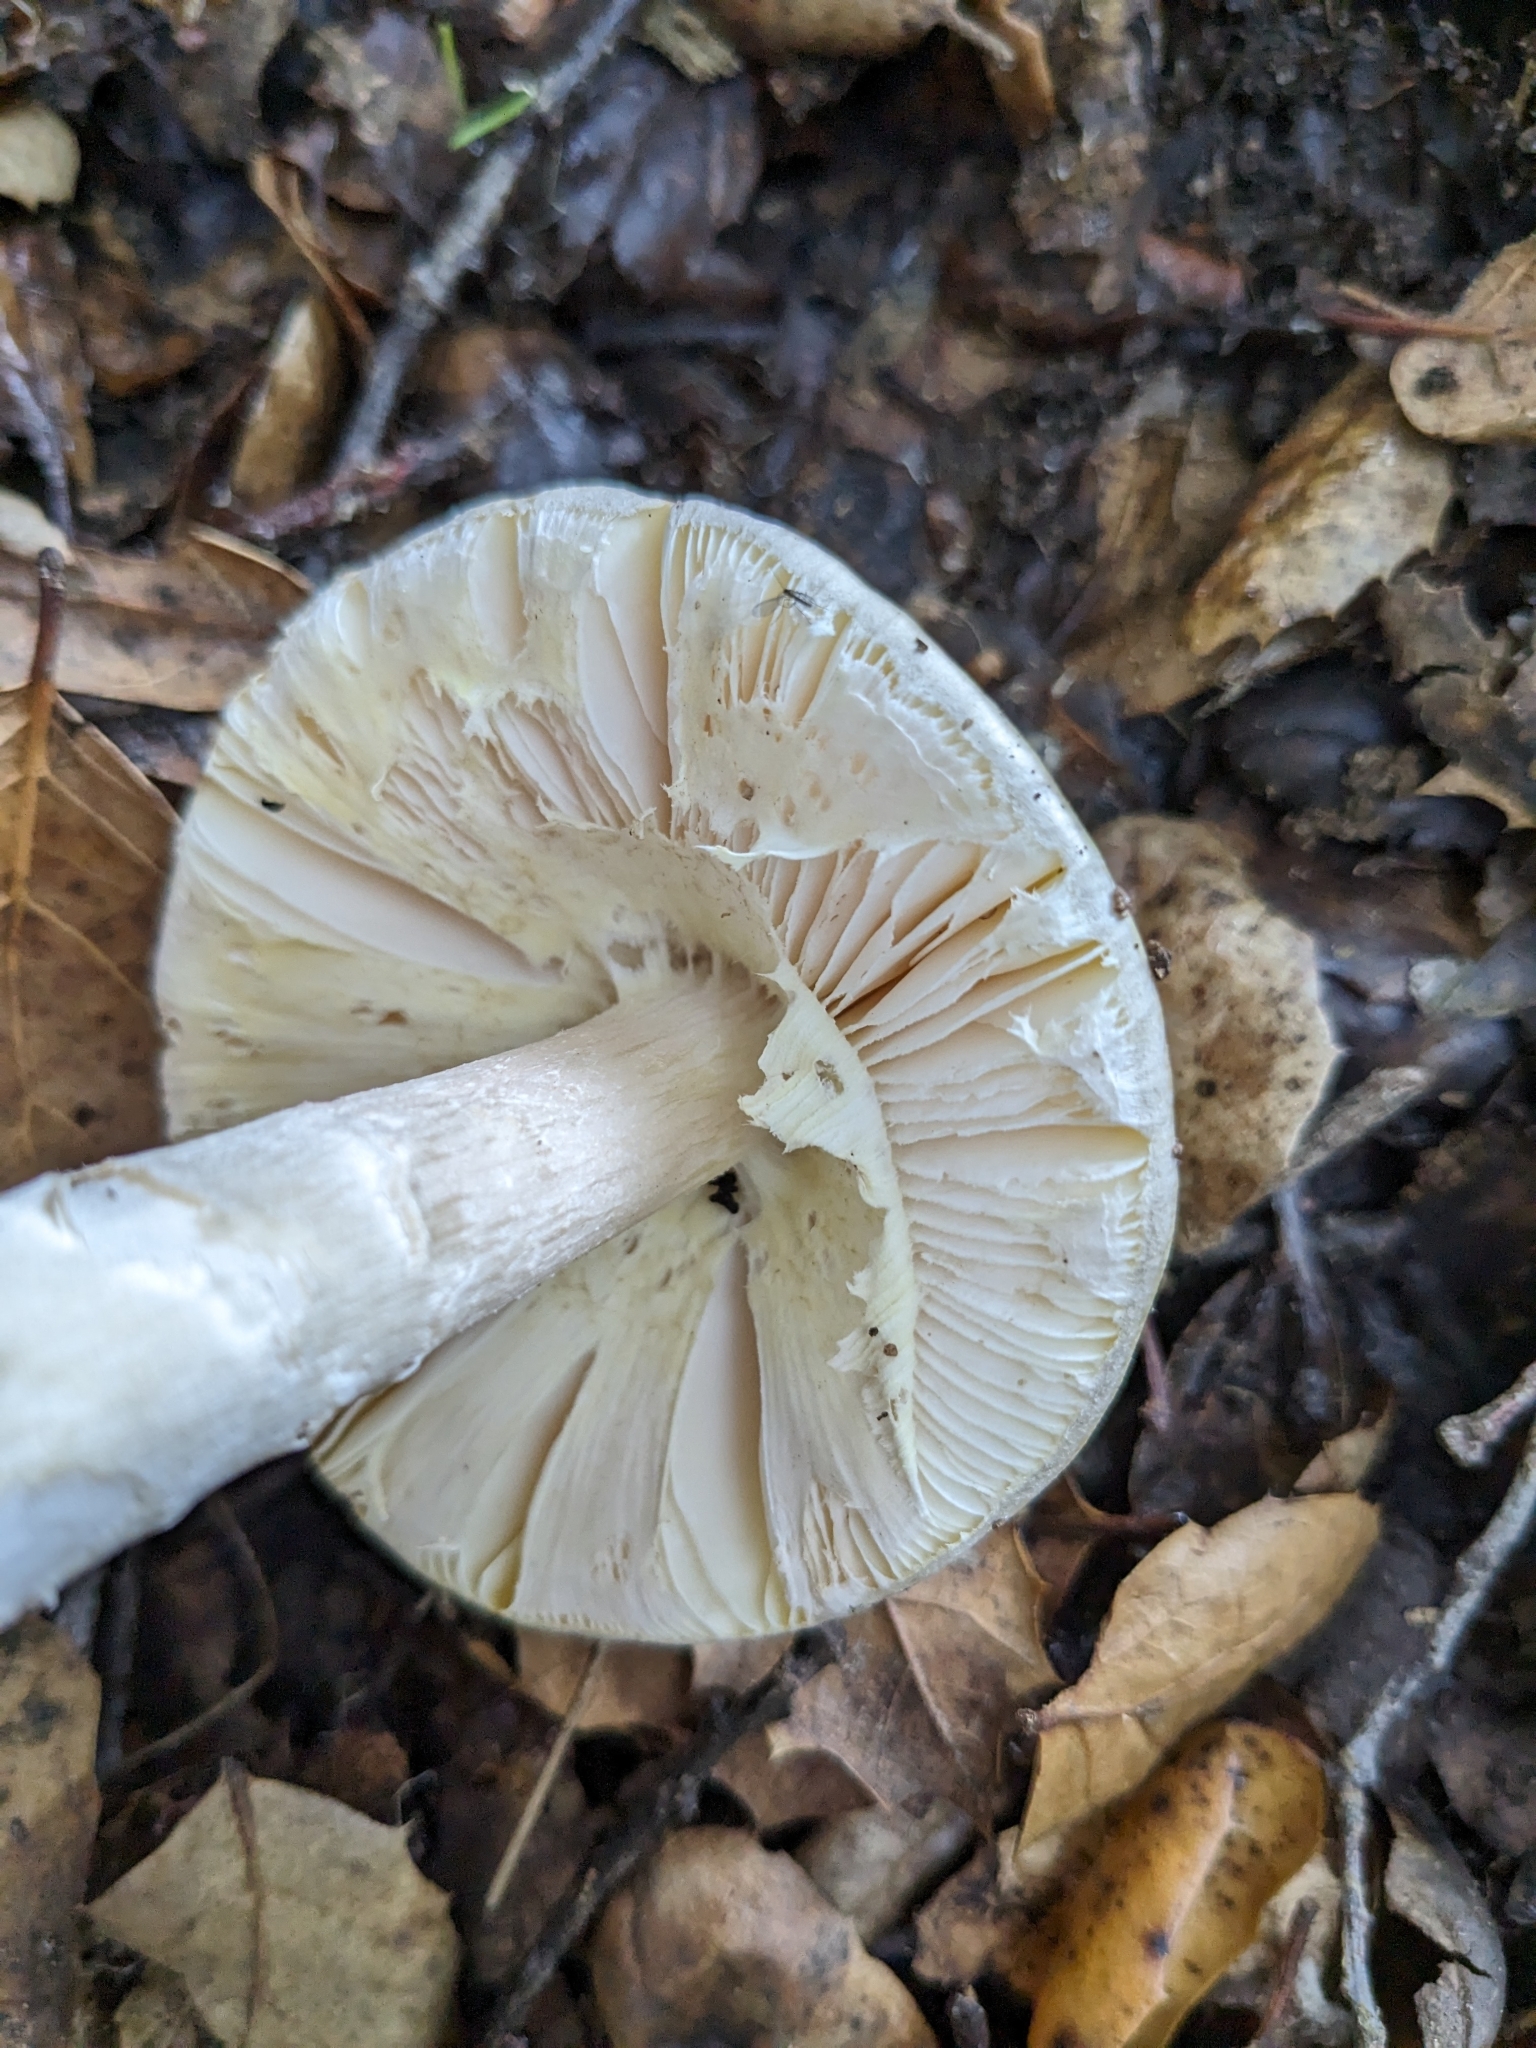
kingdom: Fungi
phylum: Basidiomycota
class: Agaricomycetes
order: Agaricales
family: Amanitaceae
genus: Amanita
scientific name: Amanita phalloides
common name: Death cap
